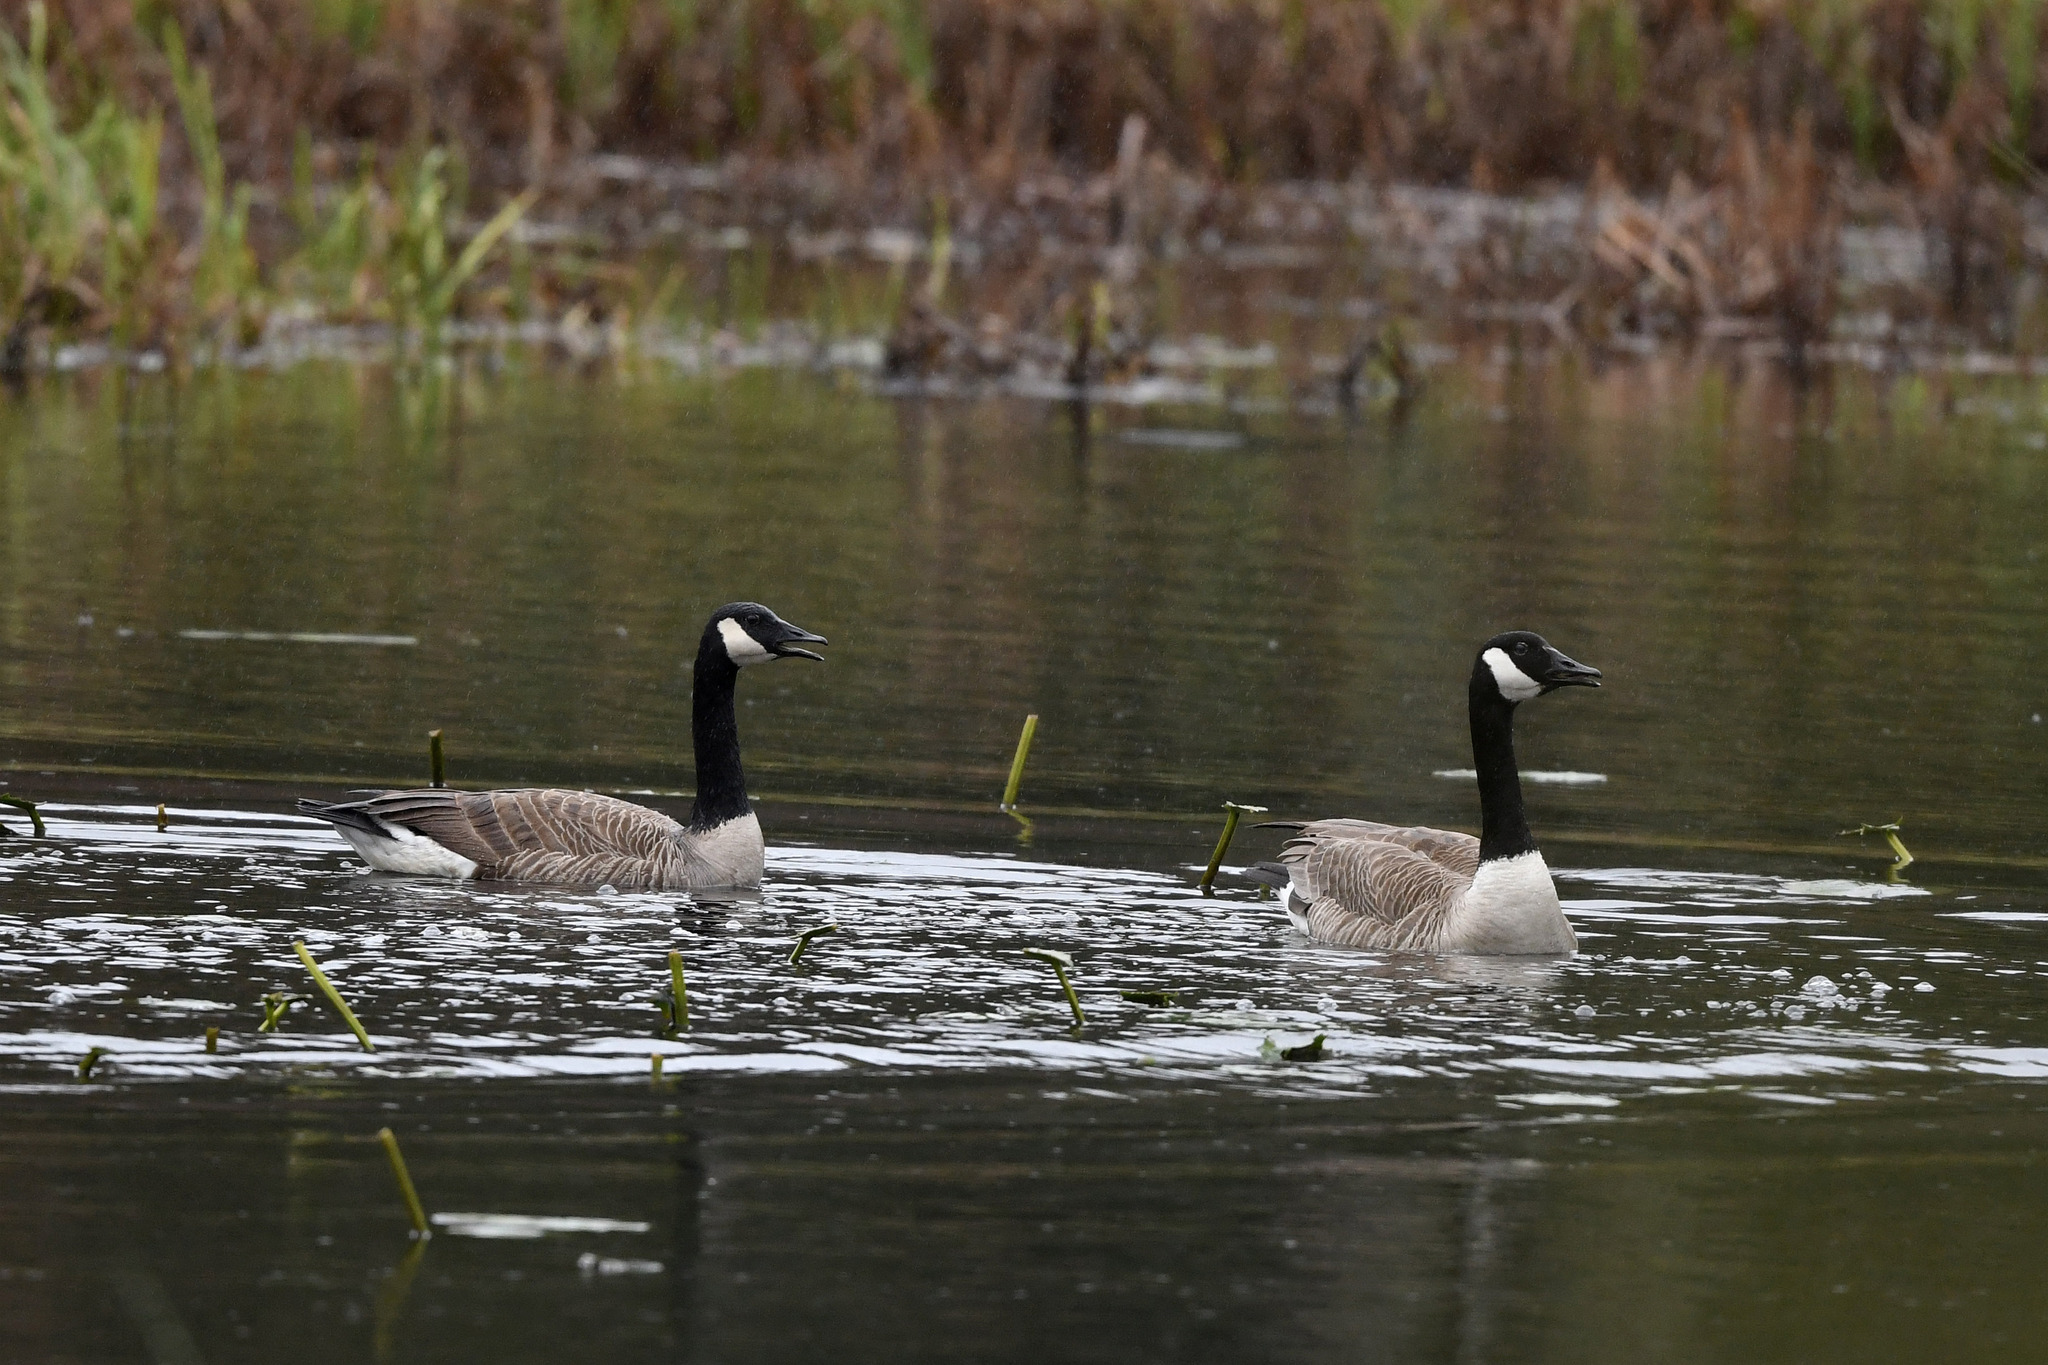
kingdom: Animalia
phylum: Chordata
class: Aves
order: Anseriformes
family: Anatidae
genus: Branta
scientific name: Branta canadensis
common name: Canada goose
